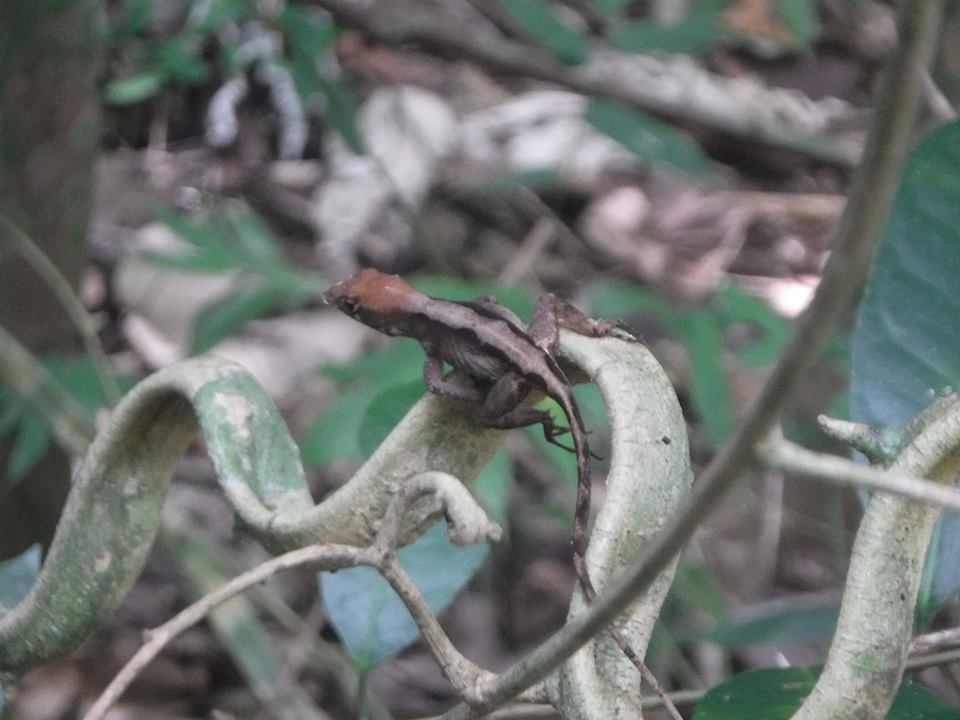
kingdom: Animalia
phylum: Chordata
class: Squamata
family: Dactyloidae
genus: Anolis
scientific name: Anolis sagrei
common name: Brown anole
